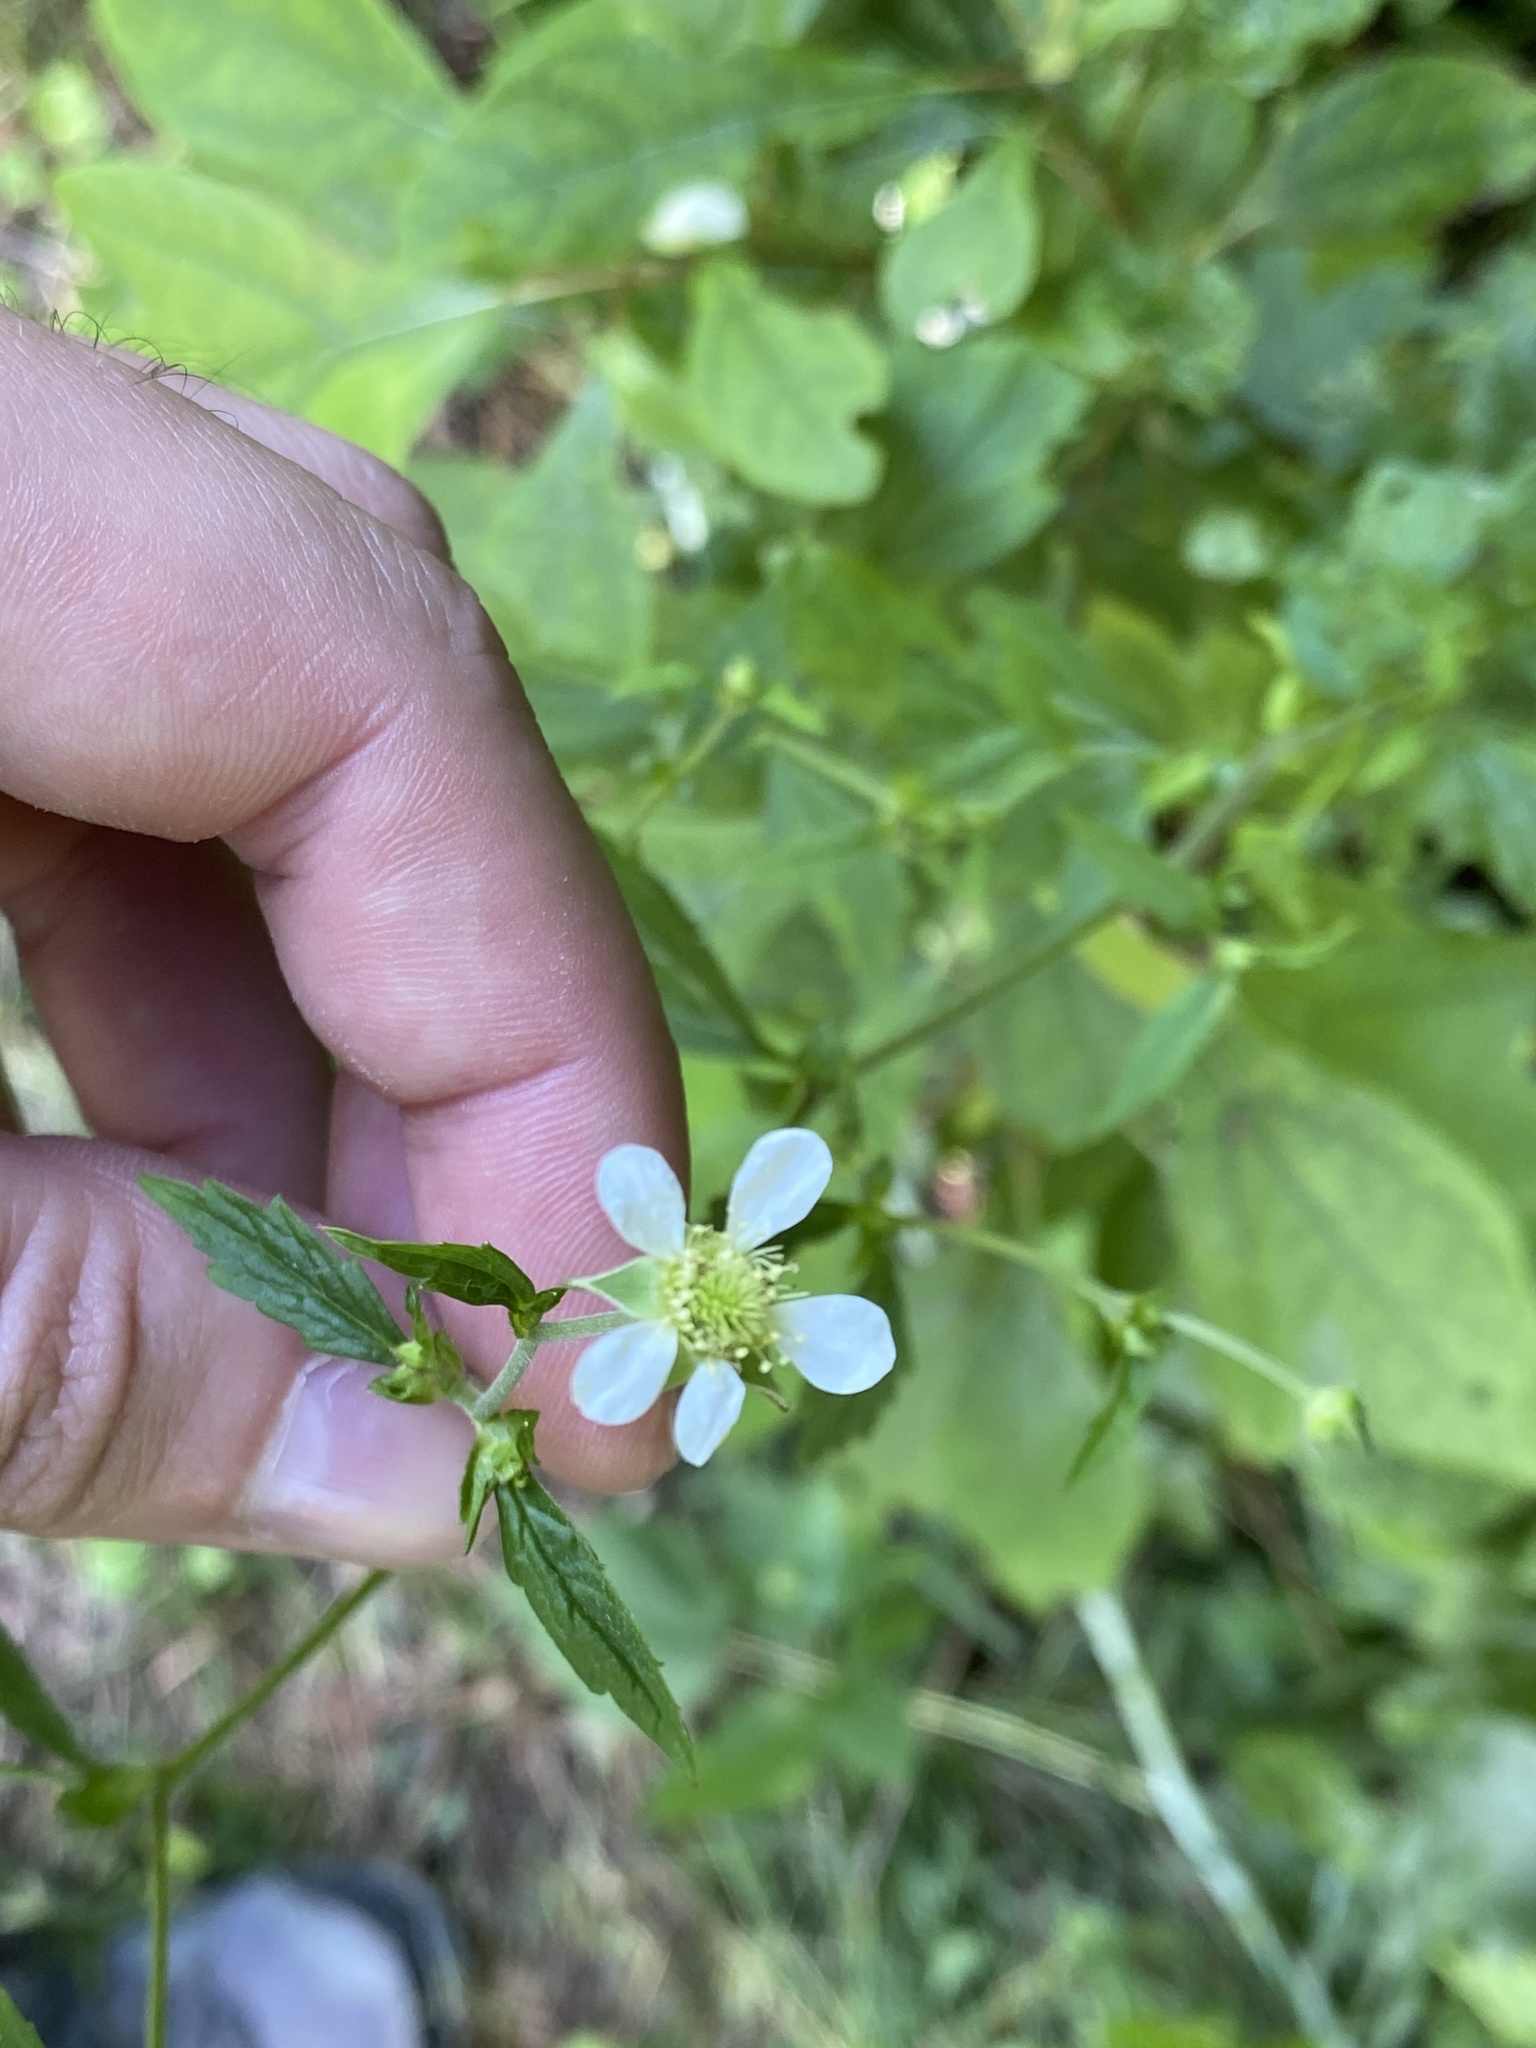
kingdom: Plantae
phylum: Tracheophyta
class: Magnoliopsida
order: Rosales
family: Rosaceae
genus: Geum
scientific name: Geum canadense
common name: White avens
